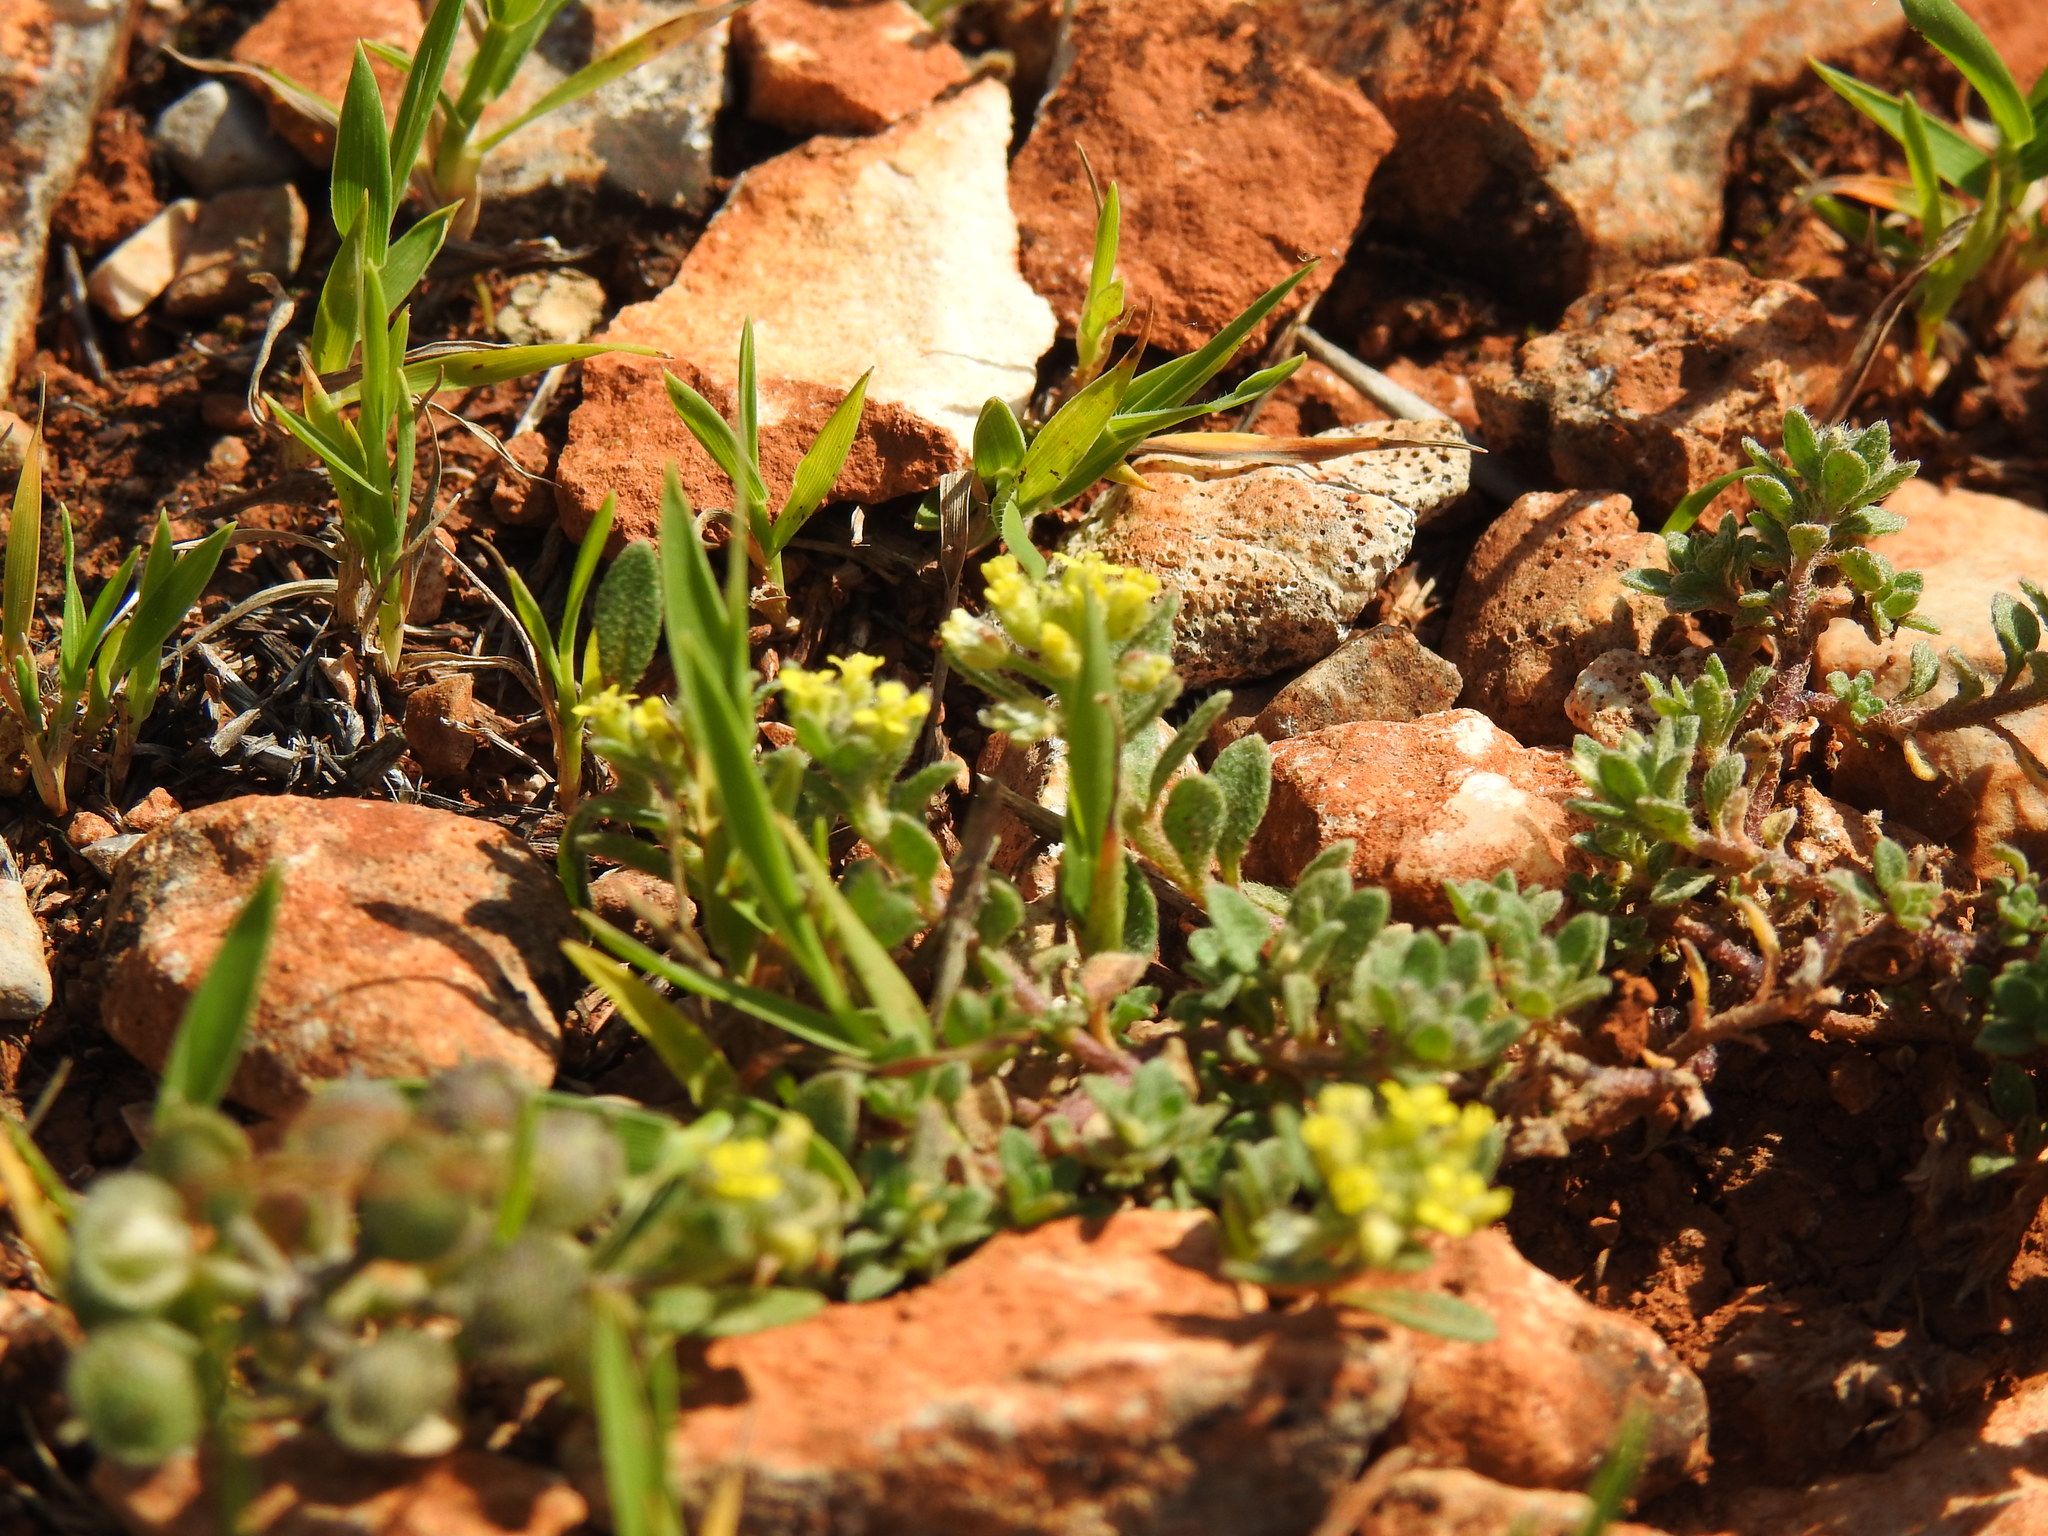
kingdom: Plantae
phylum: Tracheophyta
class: Magnoliopsida
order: Brassicales
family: Brassicaceae
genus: Alyssum
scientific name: Alyssum simplex
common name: Alyssum
